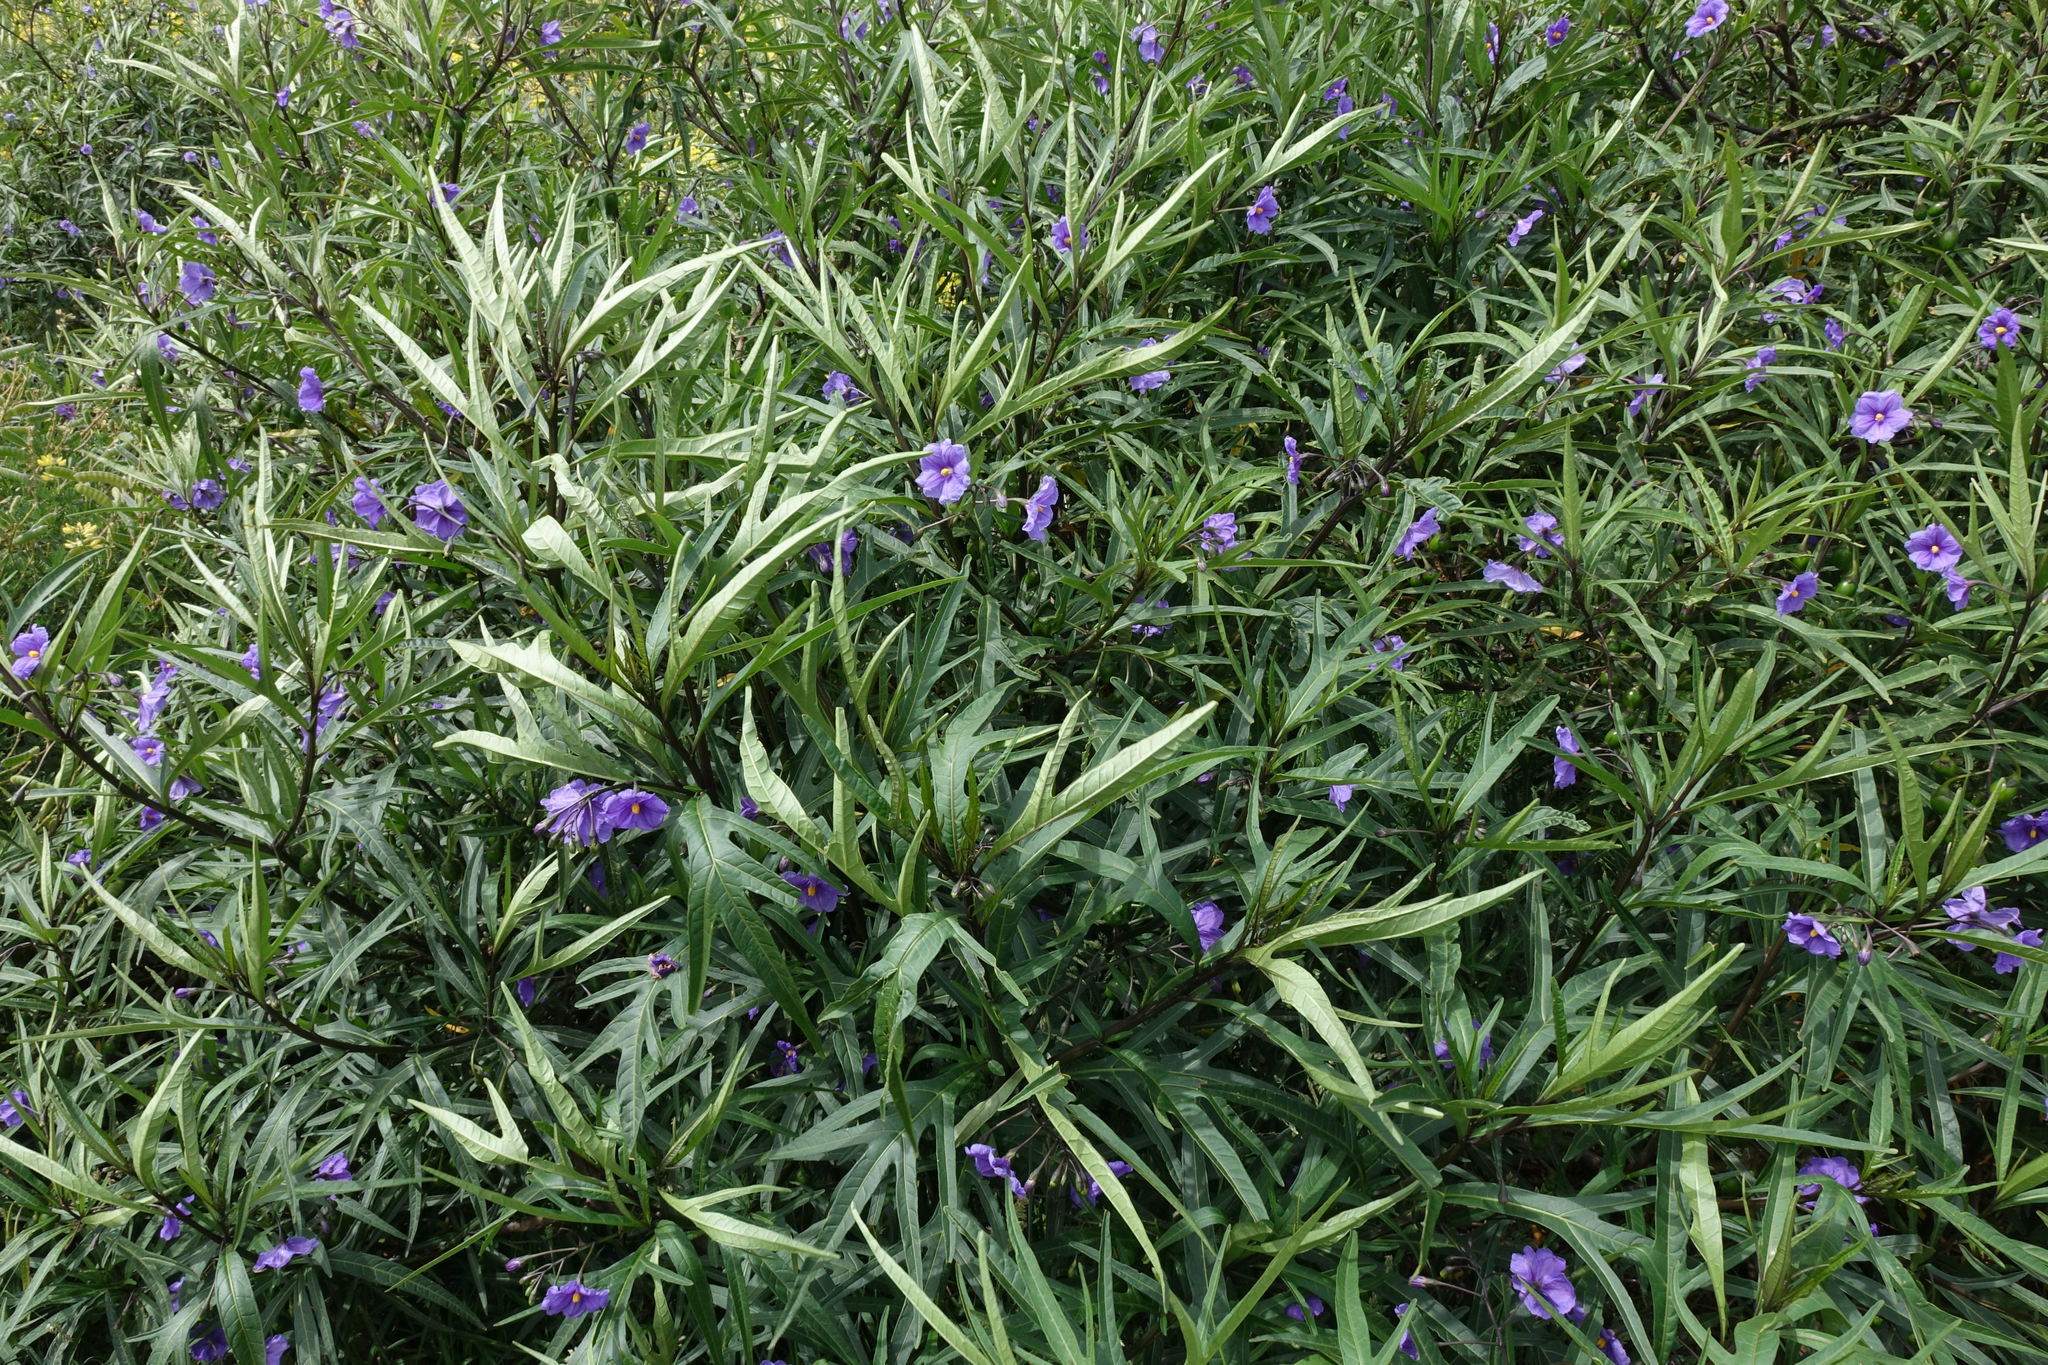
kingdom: Plantae
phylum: Tracheophyta
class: Magnoliopsida
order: Solanales
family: Solanaceae
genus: Solanum
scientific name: Solanum laciniatum
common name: Kangaroo-apple
